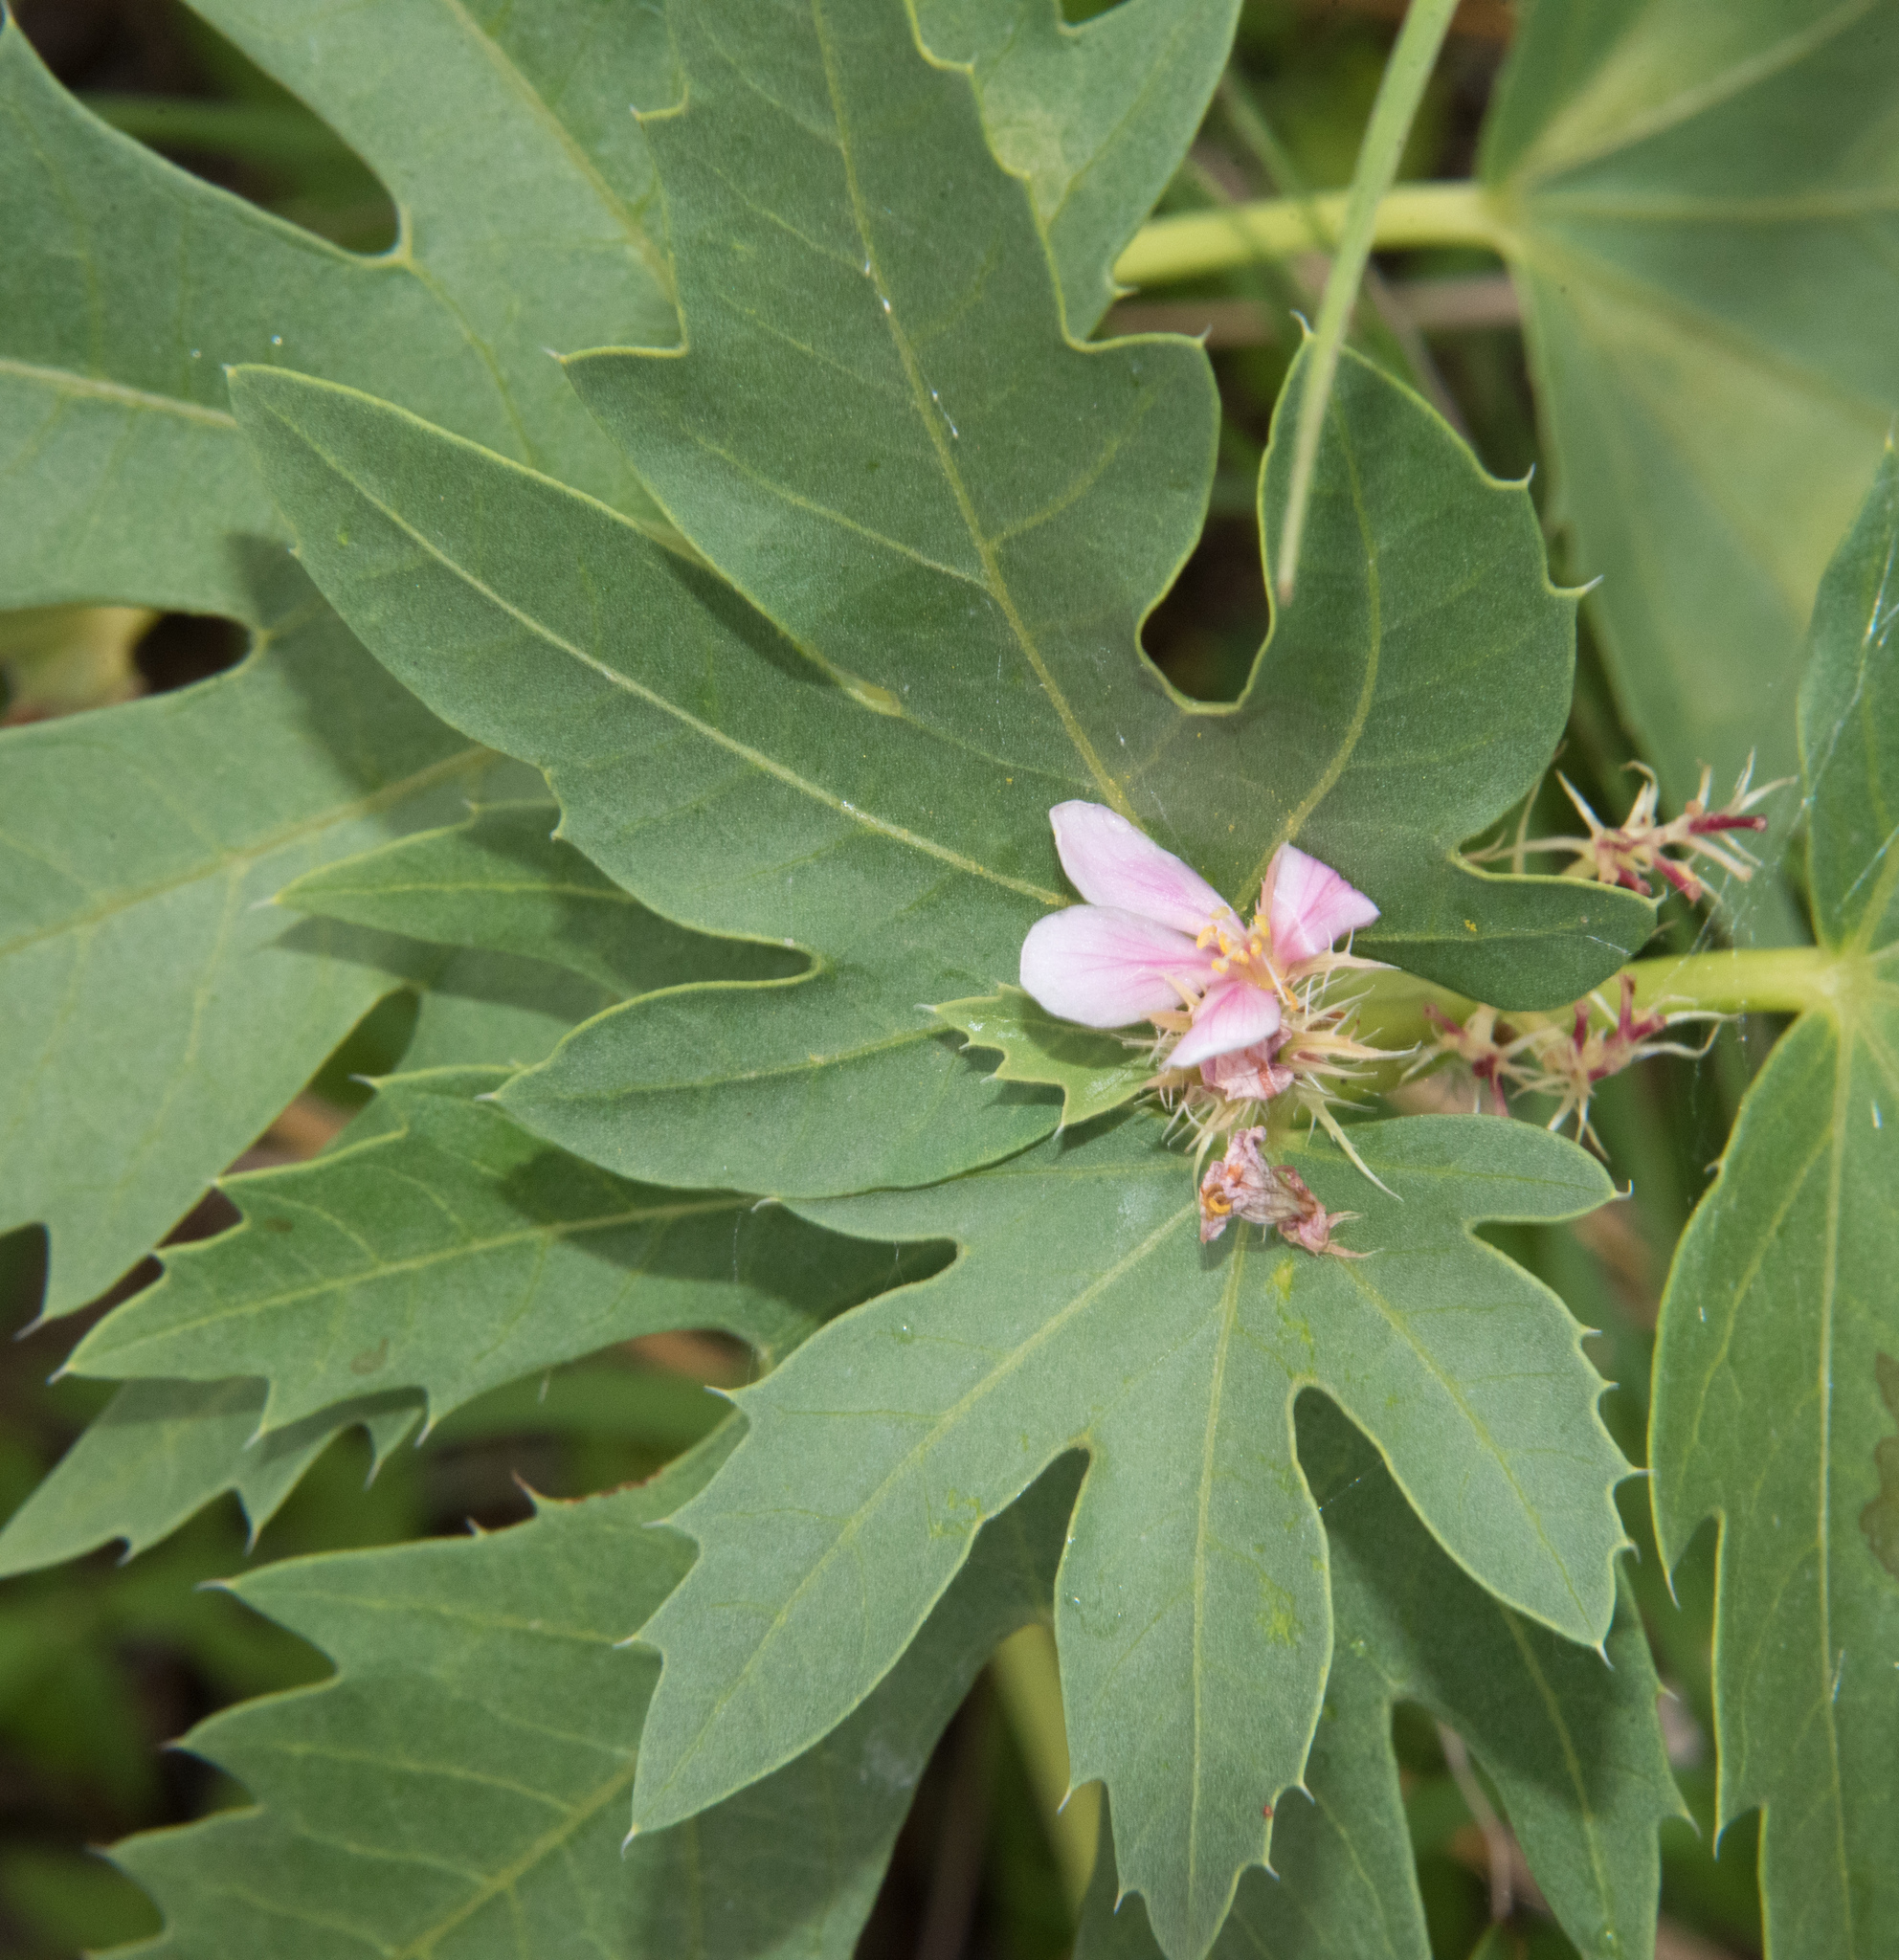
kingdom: Plantae
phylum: Tracheophyta
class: Magnoliopsida
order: Malpighiales
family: Euphorbiaceae
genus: Jatropha
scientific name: Jatropha macrorhiza
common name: Ragged nettlespurge
